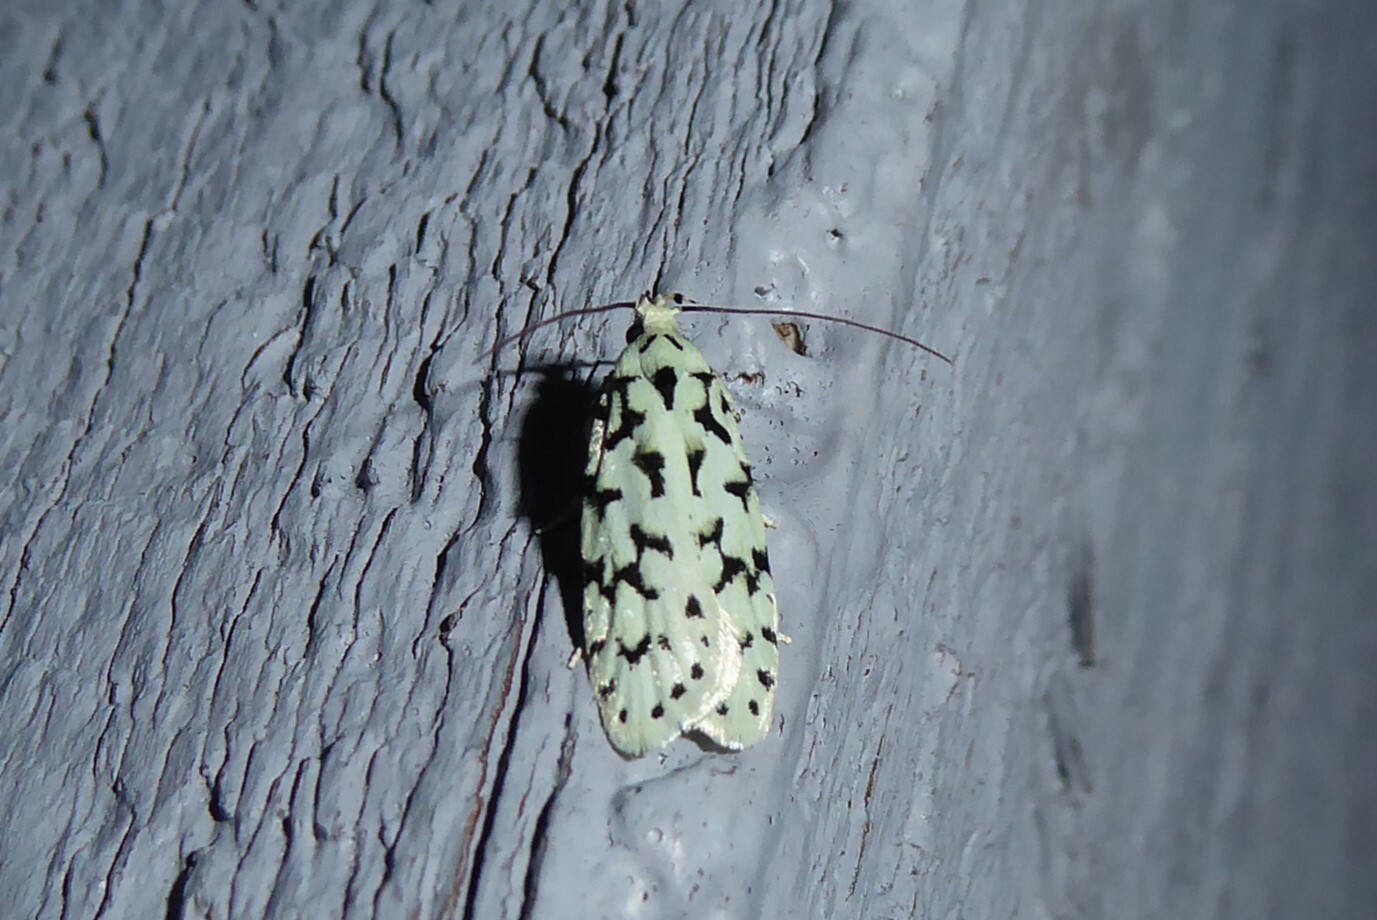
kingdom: Animalia
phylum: Arthropoda
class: Insecta
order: Lepidoptera
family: Oecophoridae
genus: Izatha
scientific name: Izatha huttoni
